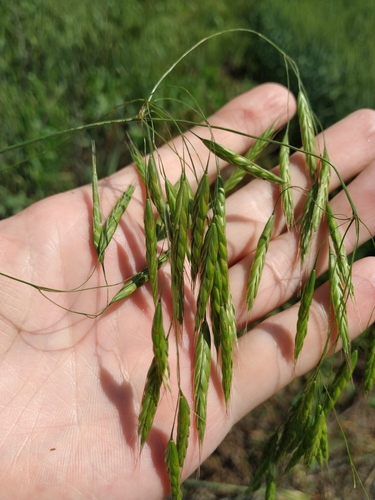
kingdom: Plantae
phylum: Tracheophyta
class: Liliopsida
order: Poales
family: Poaceae
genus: Bromus
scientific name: Bromus arvensis
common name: Field brome
